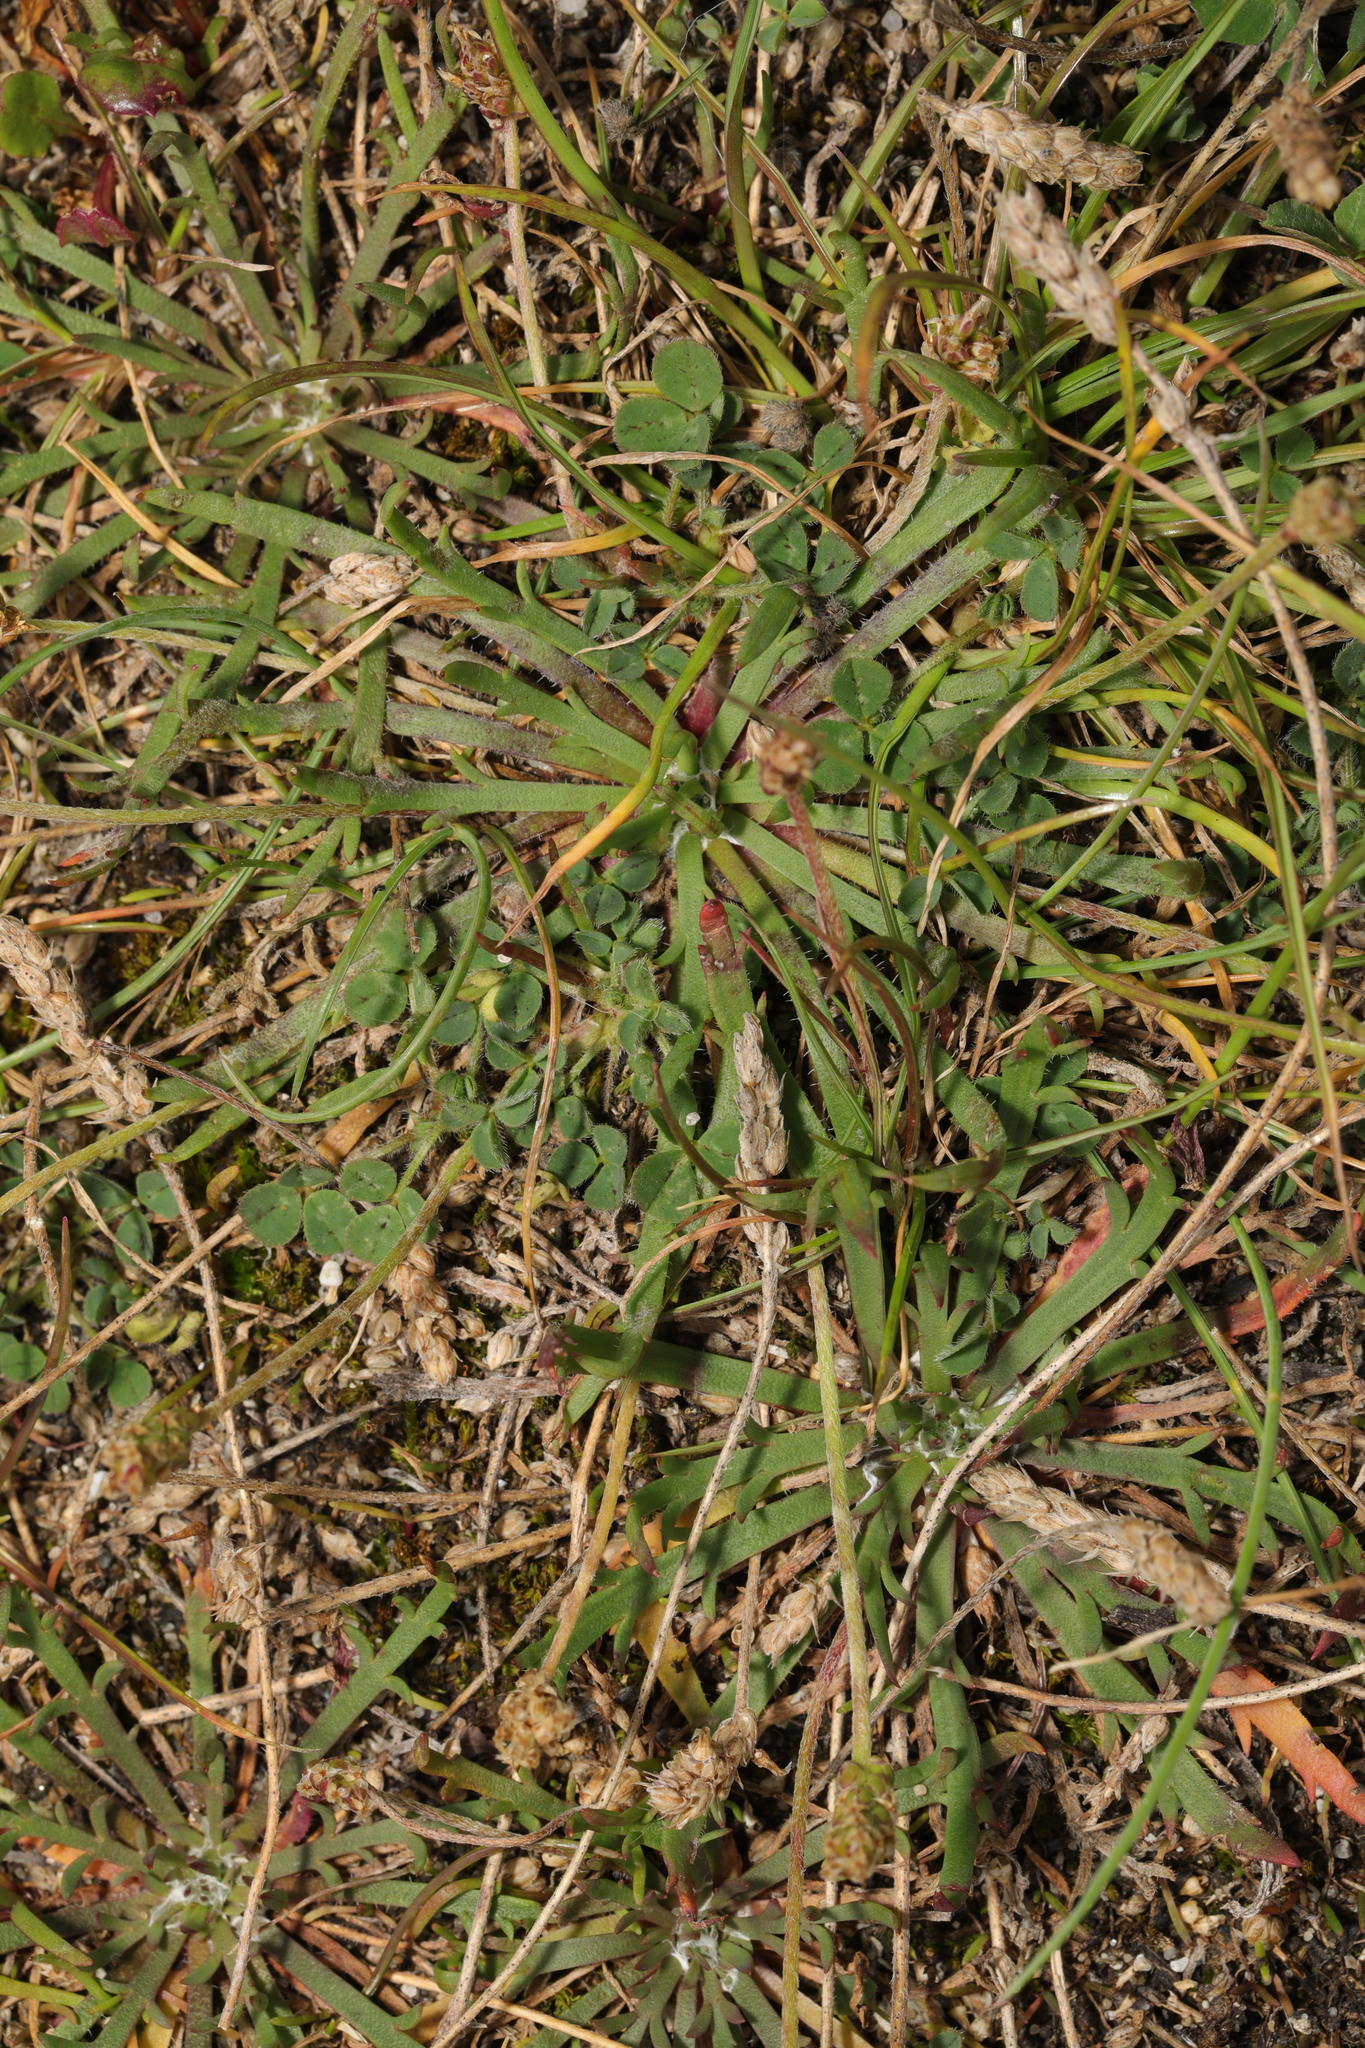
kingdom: Plantae
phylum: Tracheophyta
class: Magnoliopsida
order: Lamiales
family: Plantaginaceae
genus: Plantago
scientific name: Plantago coronopus
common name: Buck's-horn plantain
